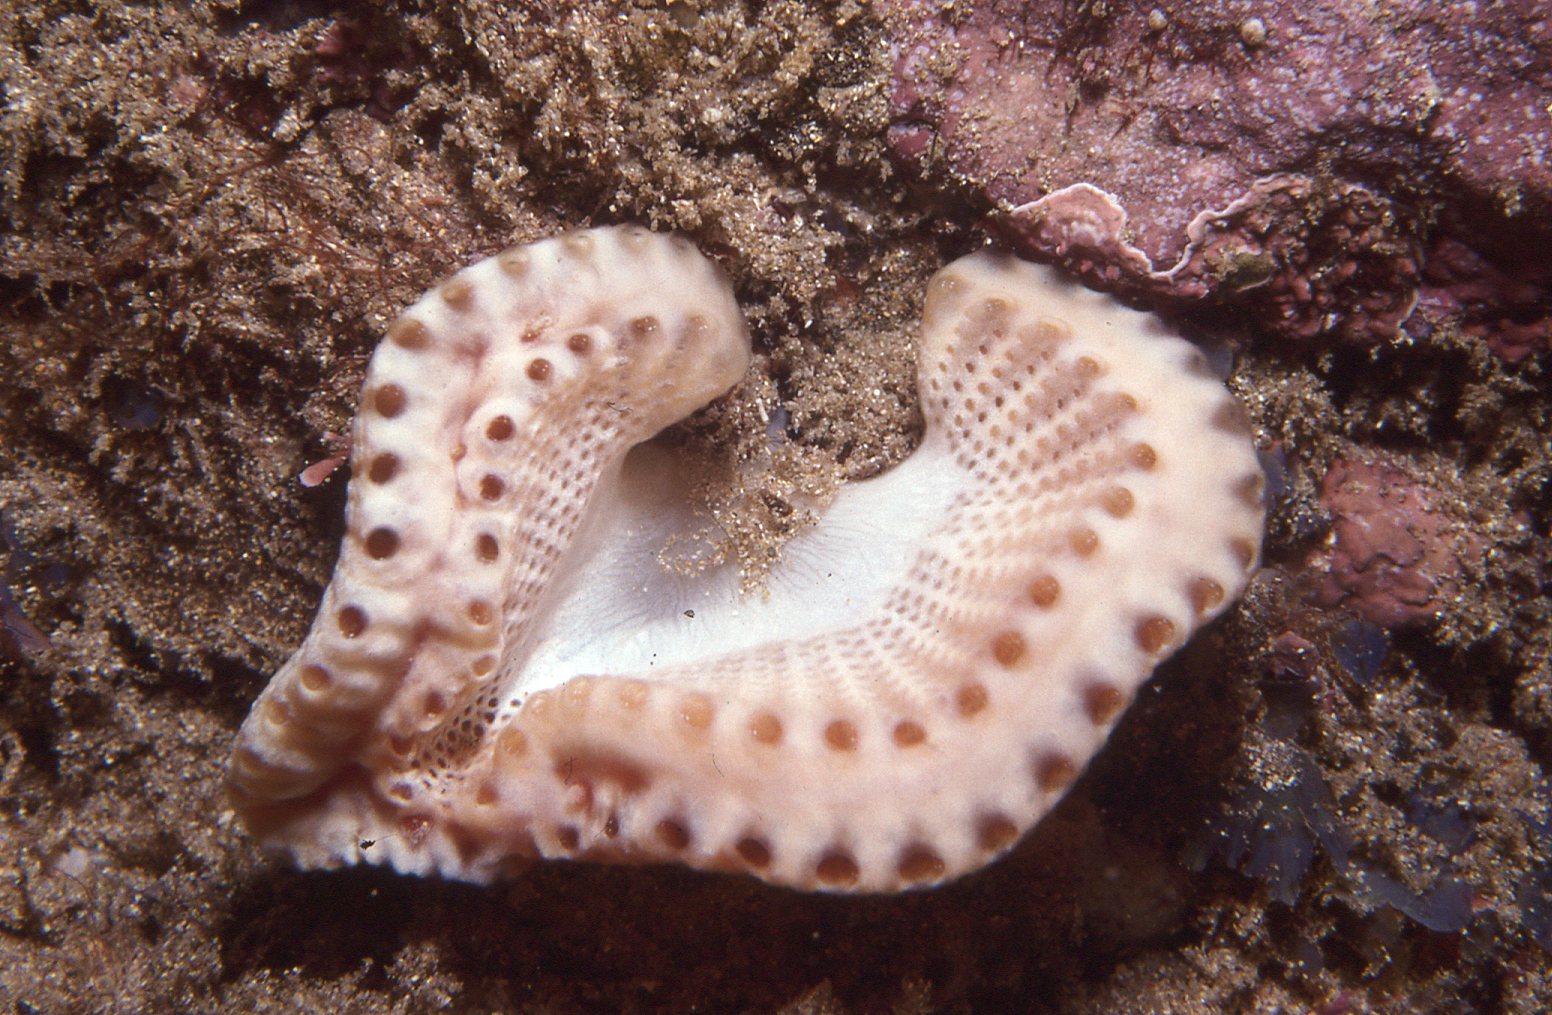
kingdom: Animalia
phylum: Chordata
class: Ascidiacea
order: Aplousobranchia
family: Holozoidae
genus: Sycozoa
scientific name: Sycozoa cerebriformis
